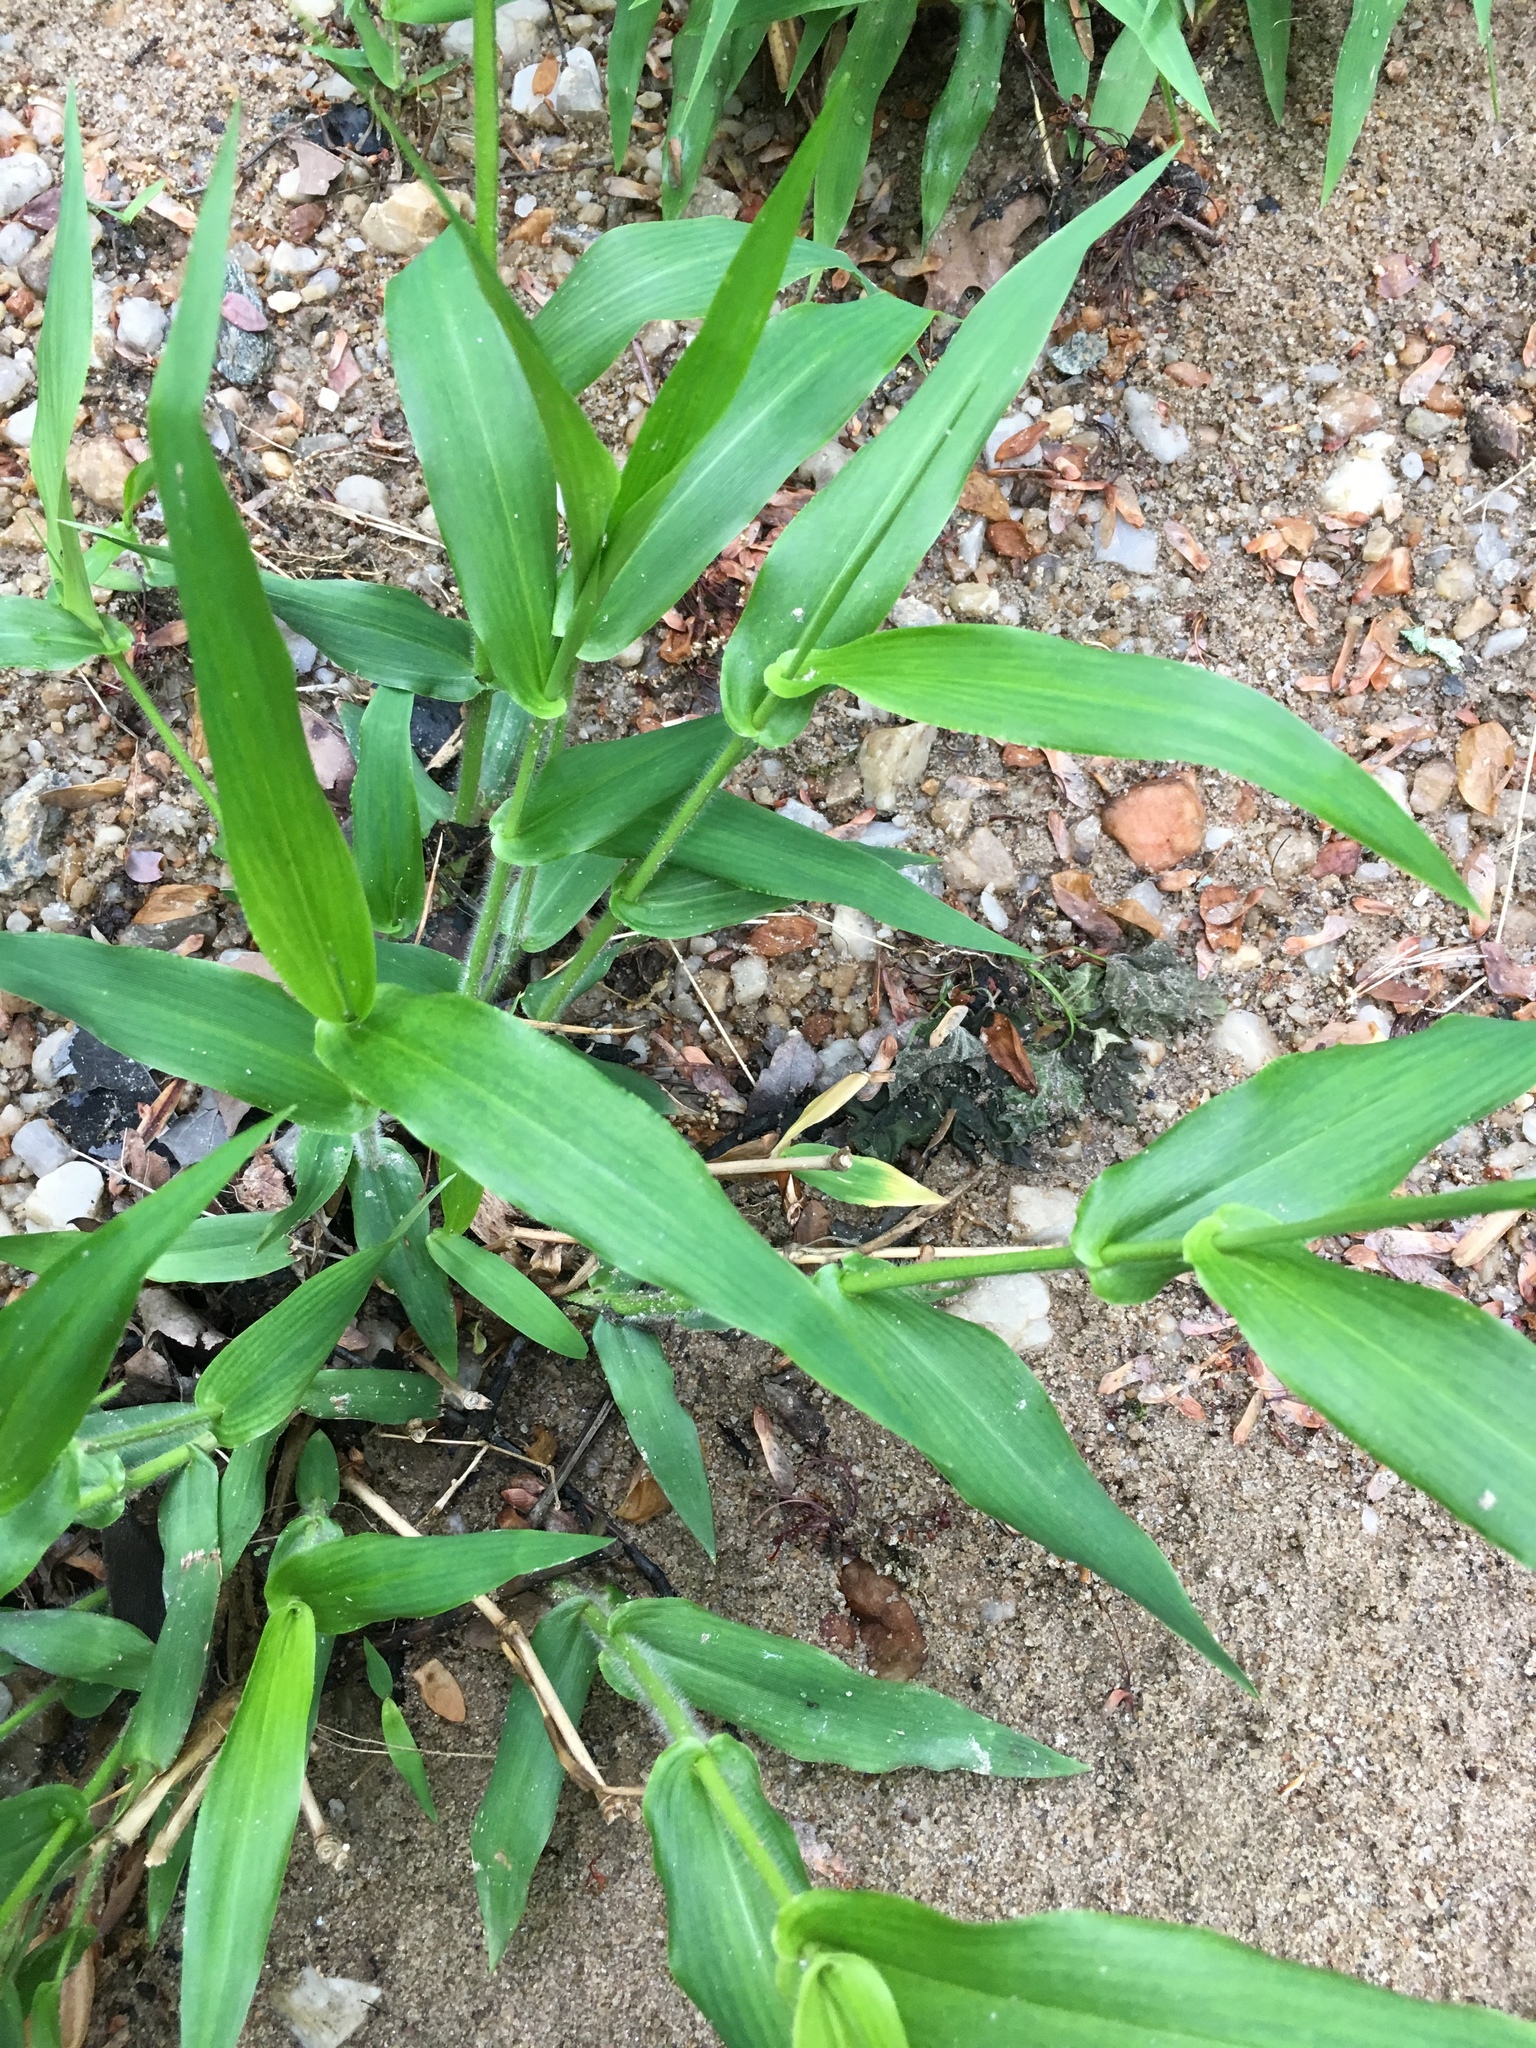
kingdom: Plantae
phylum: Tracheophyta
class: Liliopsida
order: Poales
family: Poaceae
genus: Dichanthelium
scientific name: Dichanthelium clandestinum
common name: Deer-tongue grass
